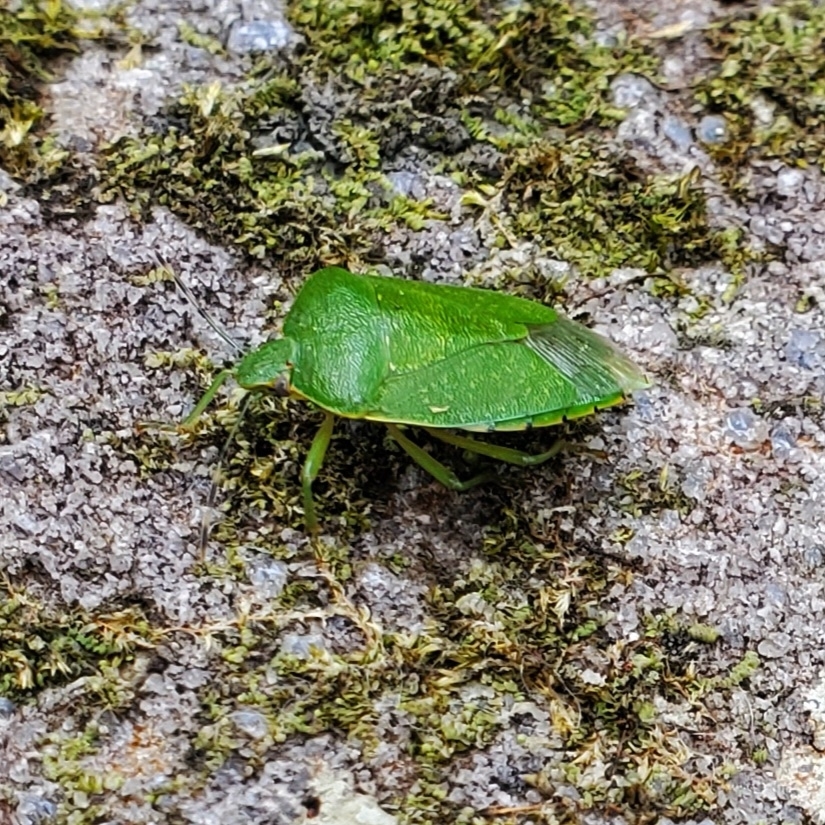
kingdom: Animalia
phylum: Arthropoda
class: Insecta
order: Hemiptera
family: Pentatomidae
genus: Chinavia
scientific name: Chinavia hilaris
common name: Green stink bug
